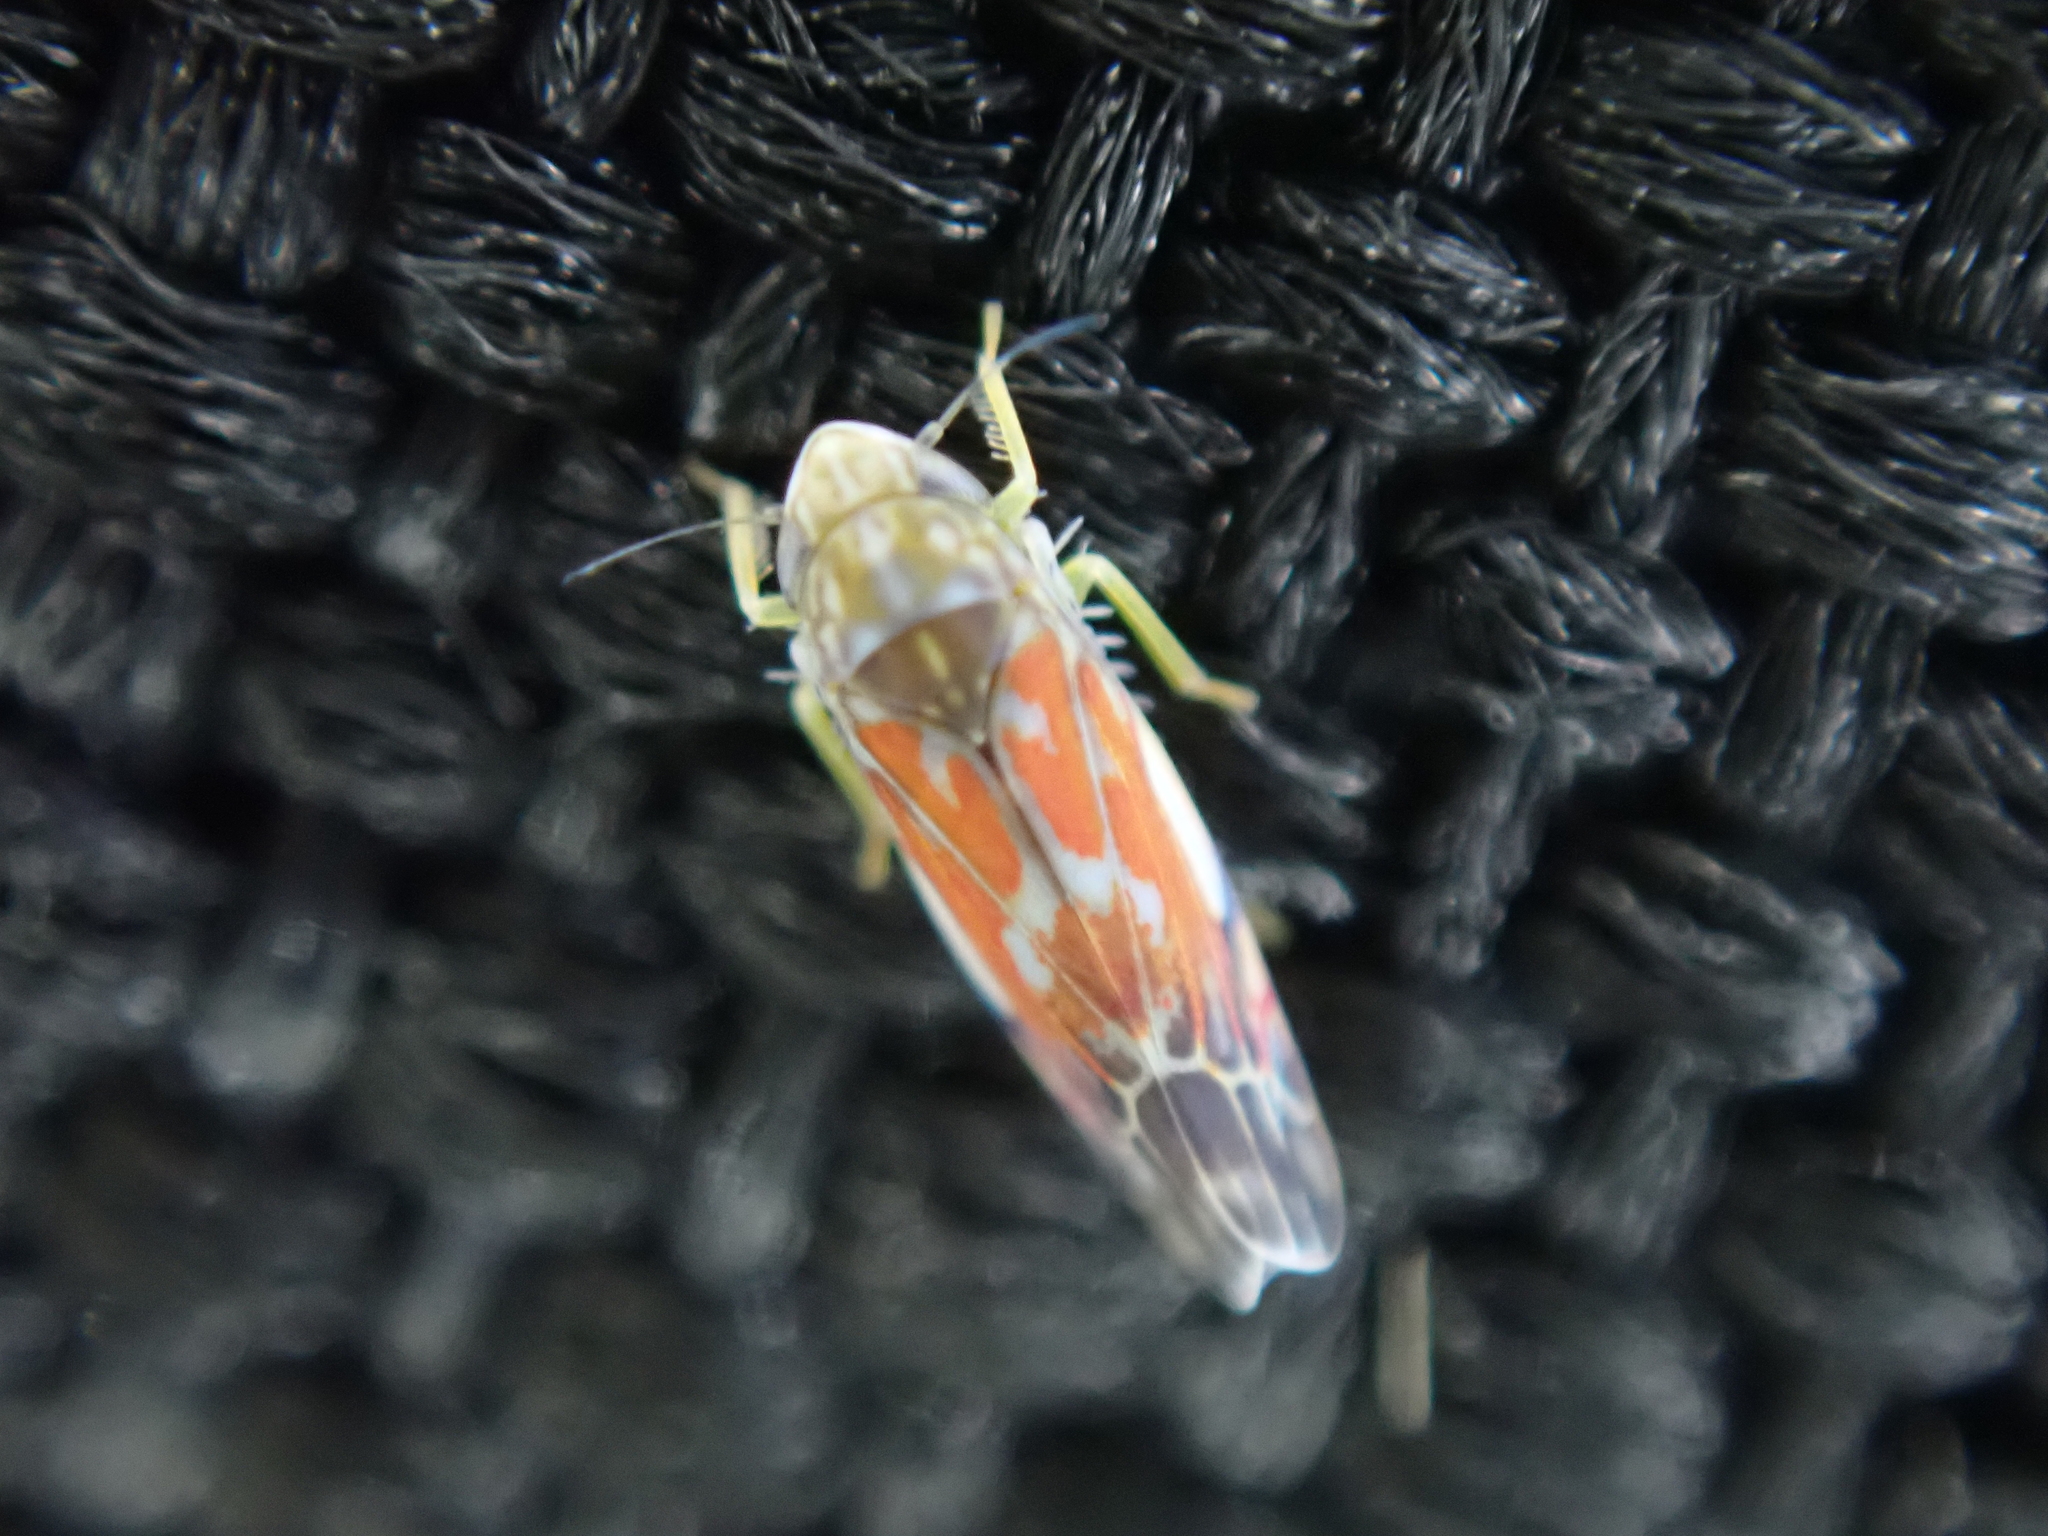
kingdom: Animalia
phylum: Arthropoda
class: Insecta
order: Hemiptera
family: Cicadellidae
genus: Erasmoneura
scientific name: Erasmoneura vulnerata
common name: The wounded leafhopper
